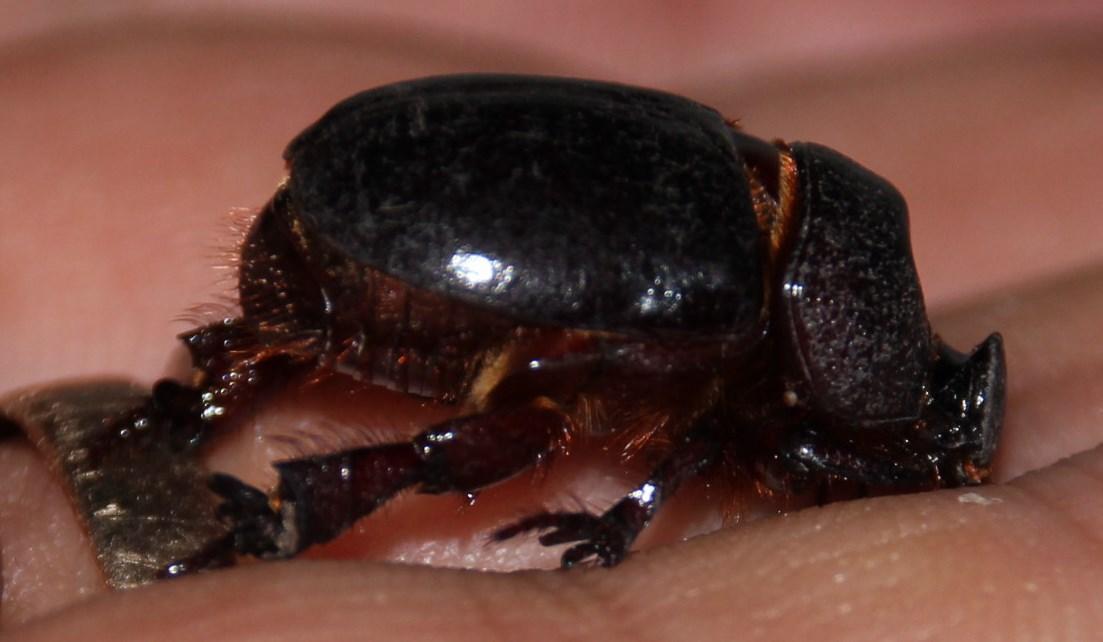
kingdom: Animalia
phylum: Arthropoda
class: Insecta
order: Coleoptera
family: Scarabaeidae
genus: Temnorhynchus
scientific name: Temnorhynchus retusus
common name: Plate-faced beetle
